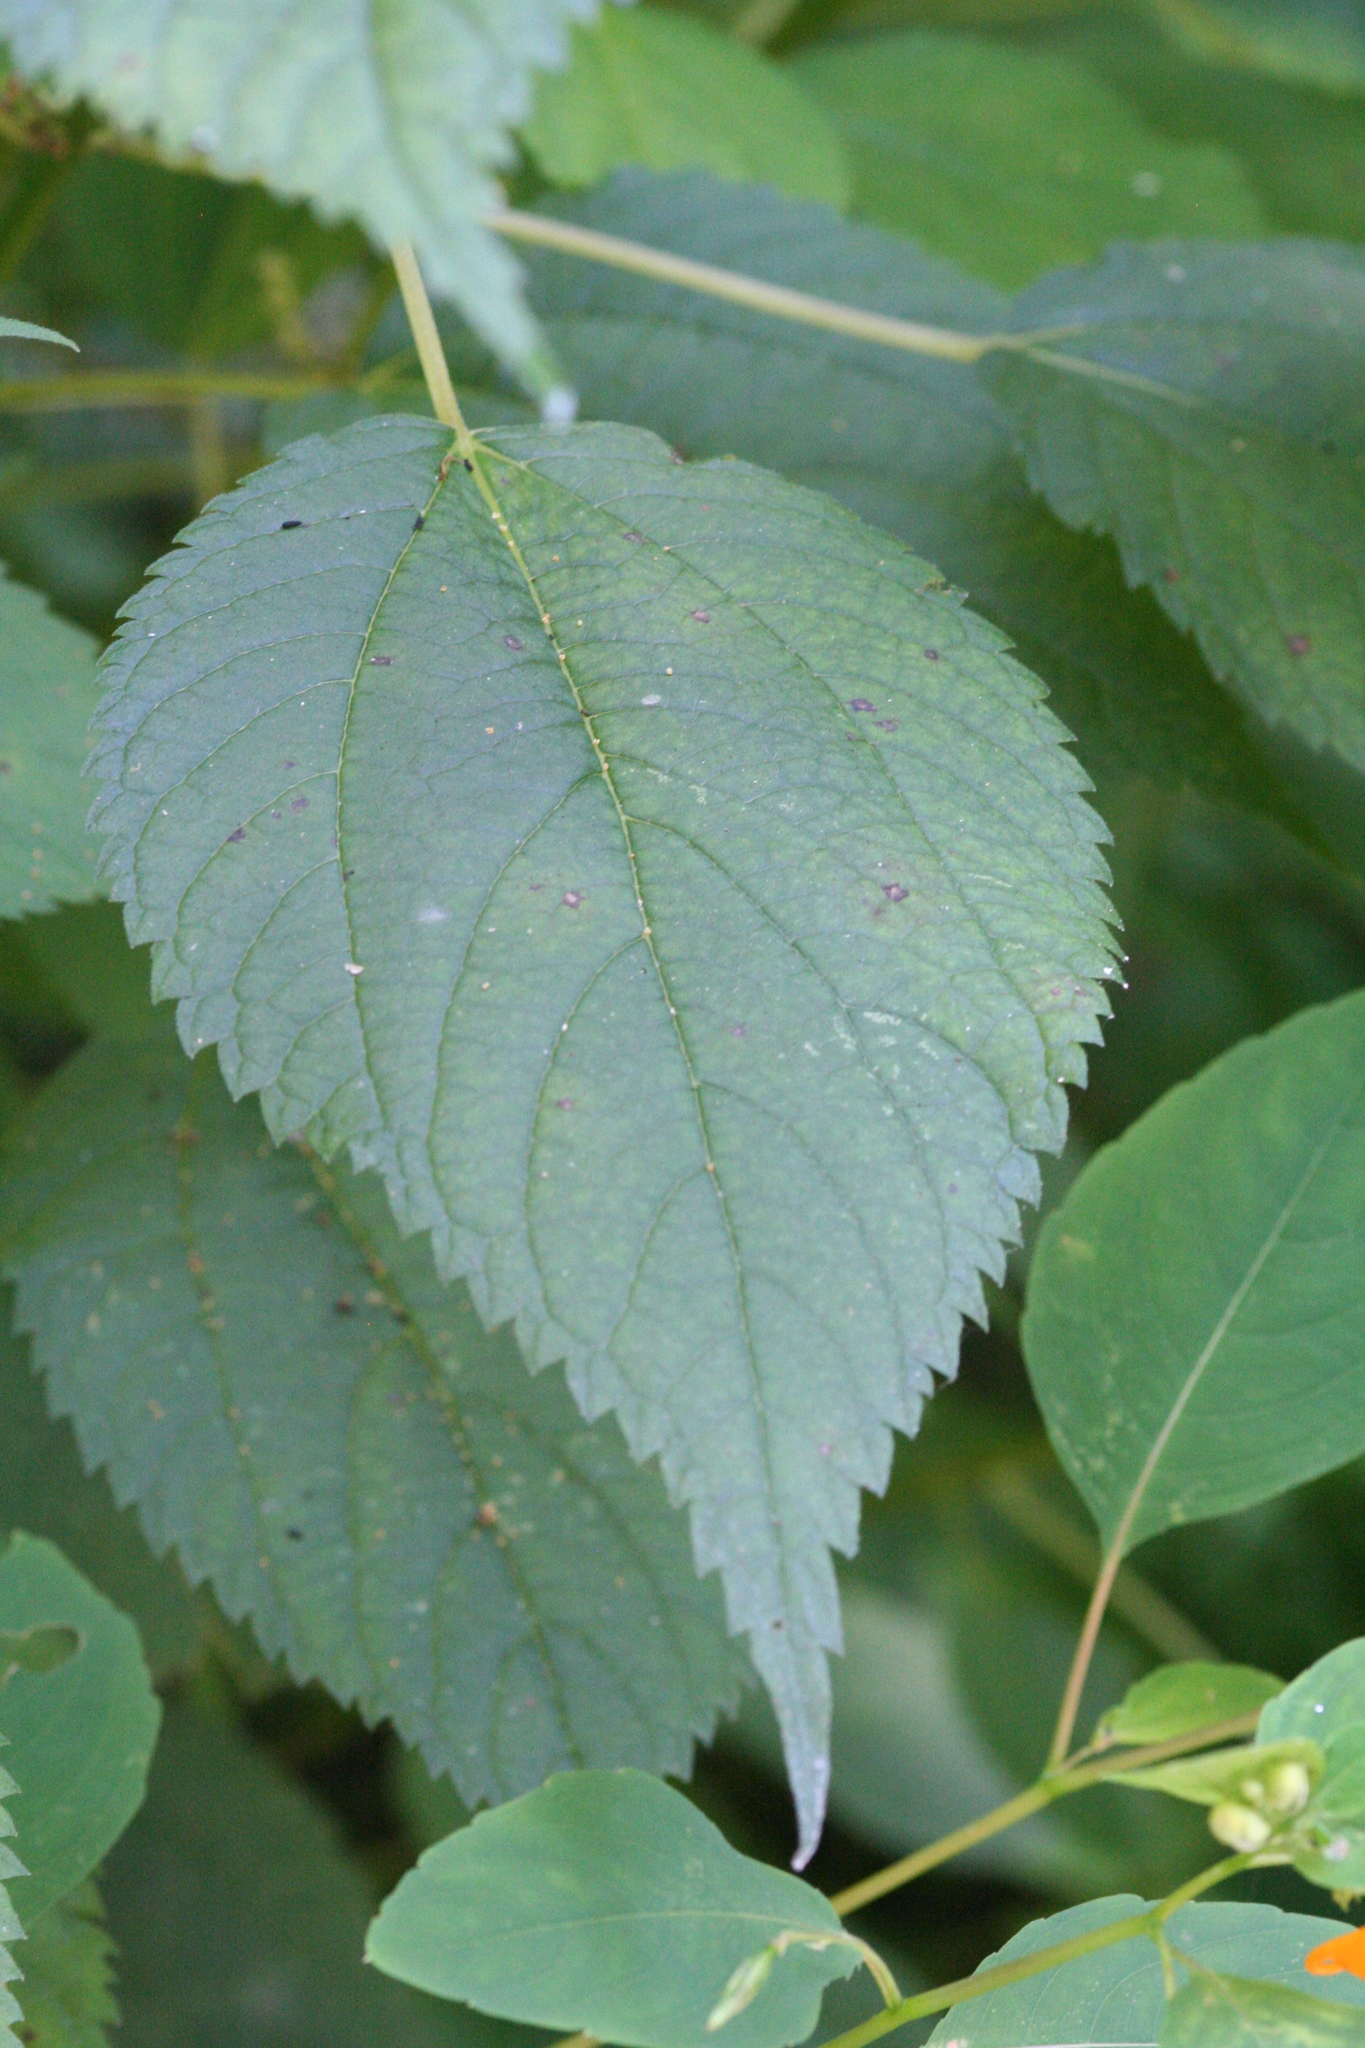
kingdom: Plantae
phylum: Tracheophyta
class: Magnoliopsida
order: Rosales
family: Urticaceae
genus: Boehmeria
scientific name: Boehmeria cylindrica
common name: Bog-hemp
